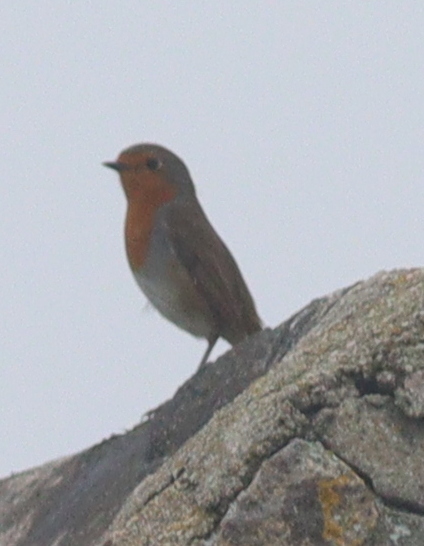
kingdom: Animalia
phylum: Chordata
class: Aves
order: Passeriformes
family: Muscicapidae
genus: Erithacus
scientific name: Erithacus rubecula
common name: European robin
